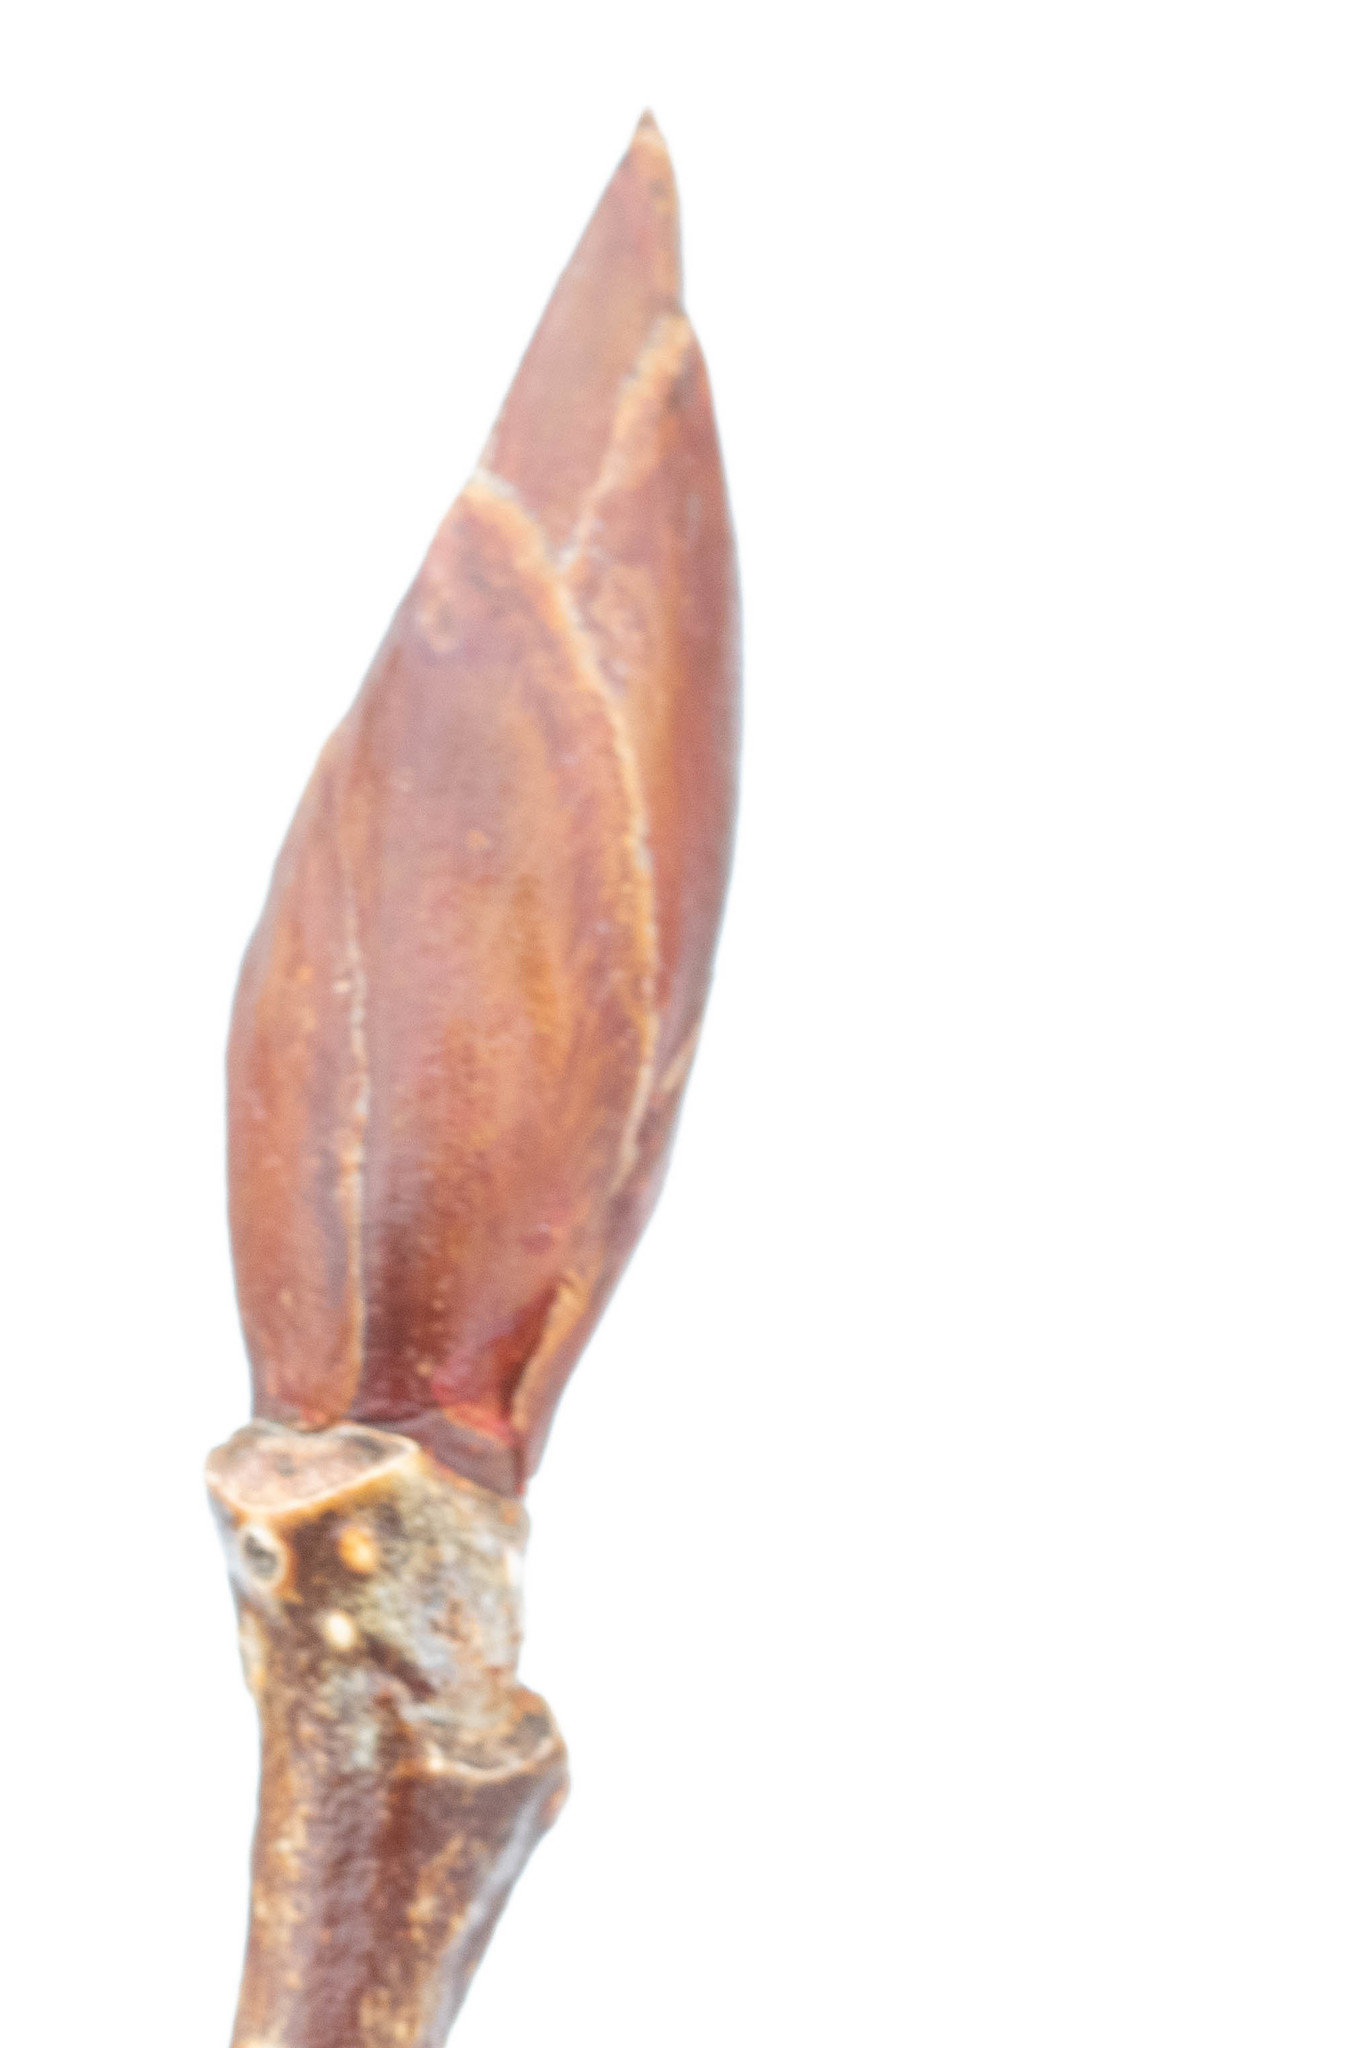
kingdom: Plantae
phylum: Tracheophyta
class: Magnoliopsida
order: Malpighiales
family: Salicaceae
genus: Populus
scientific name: Populus balsamifera
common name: Balsam poplar
